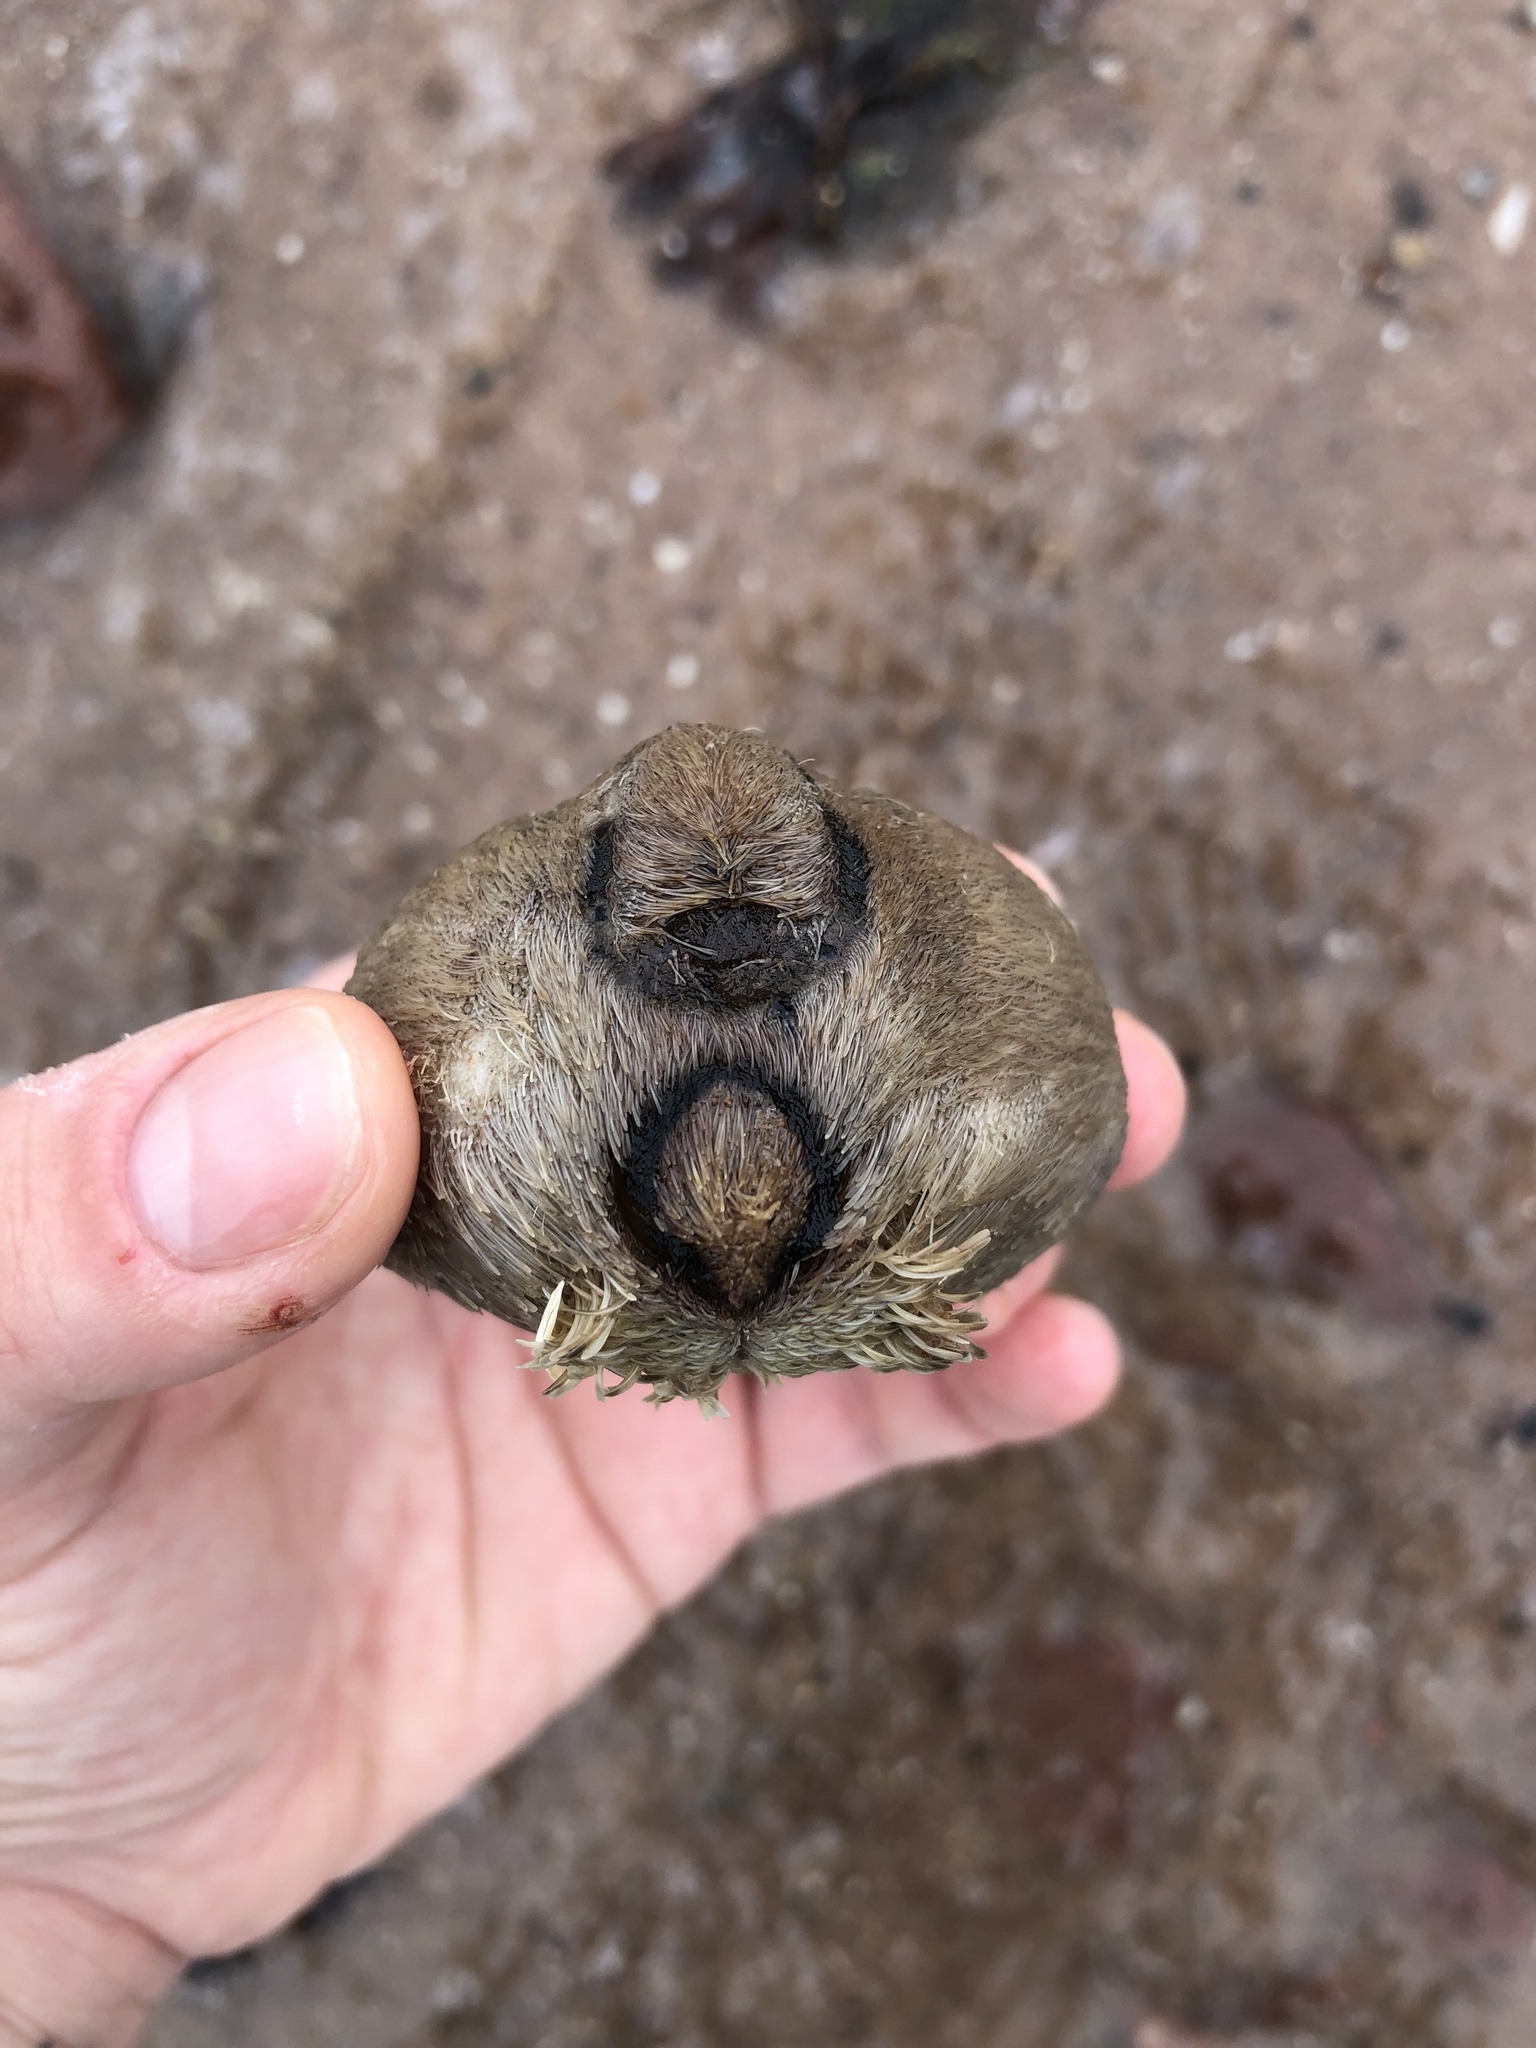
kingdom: Animalia
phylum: Echinodermata
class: Echinoidea
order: Spatangoida
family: Loveniidae
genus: Echinocardium
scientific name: Echinocardium cordatum
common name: Heart-urchin
